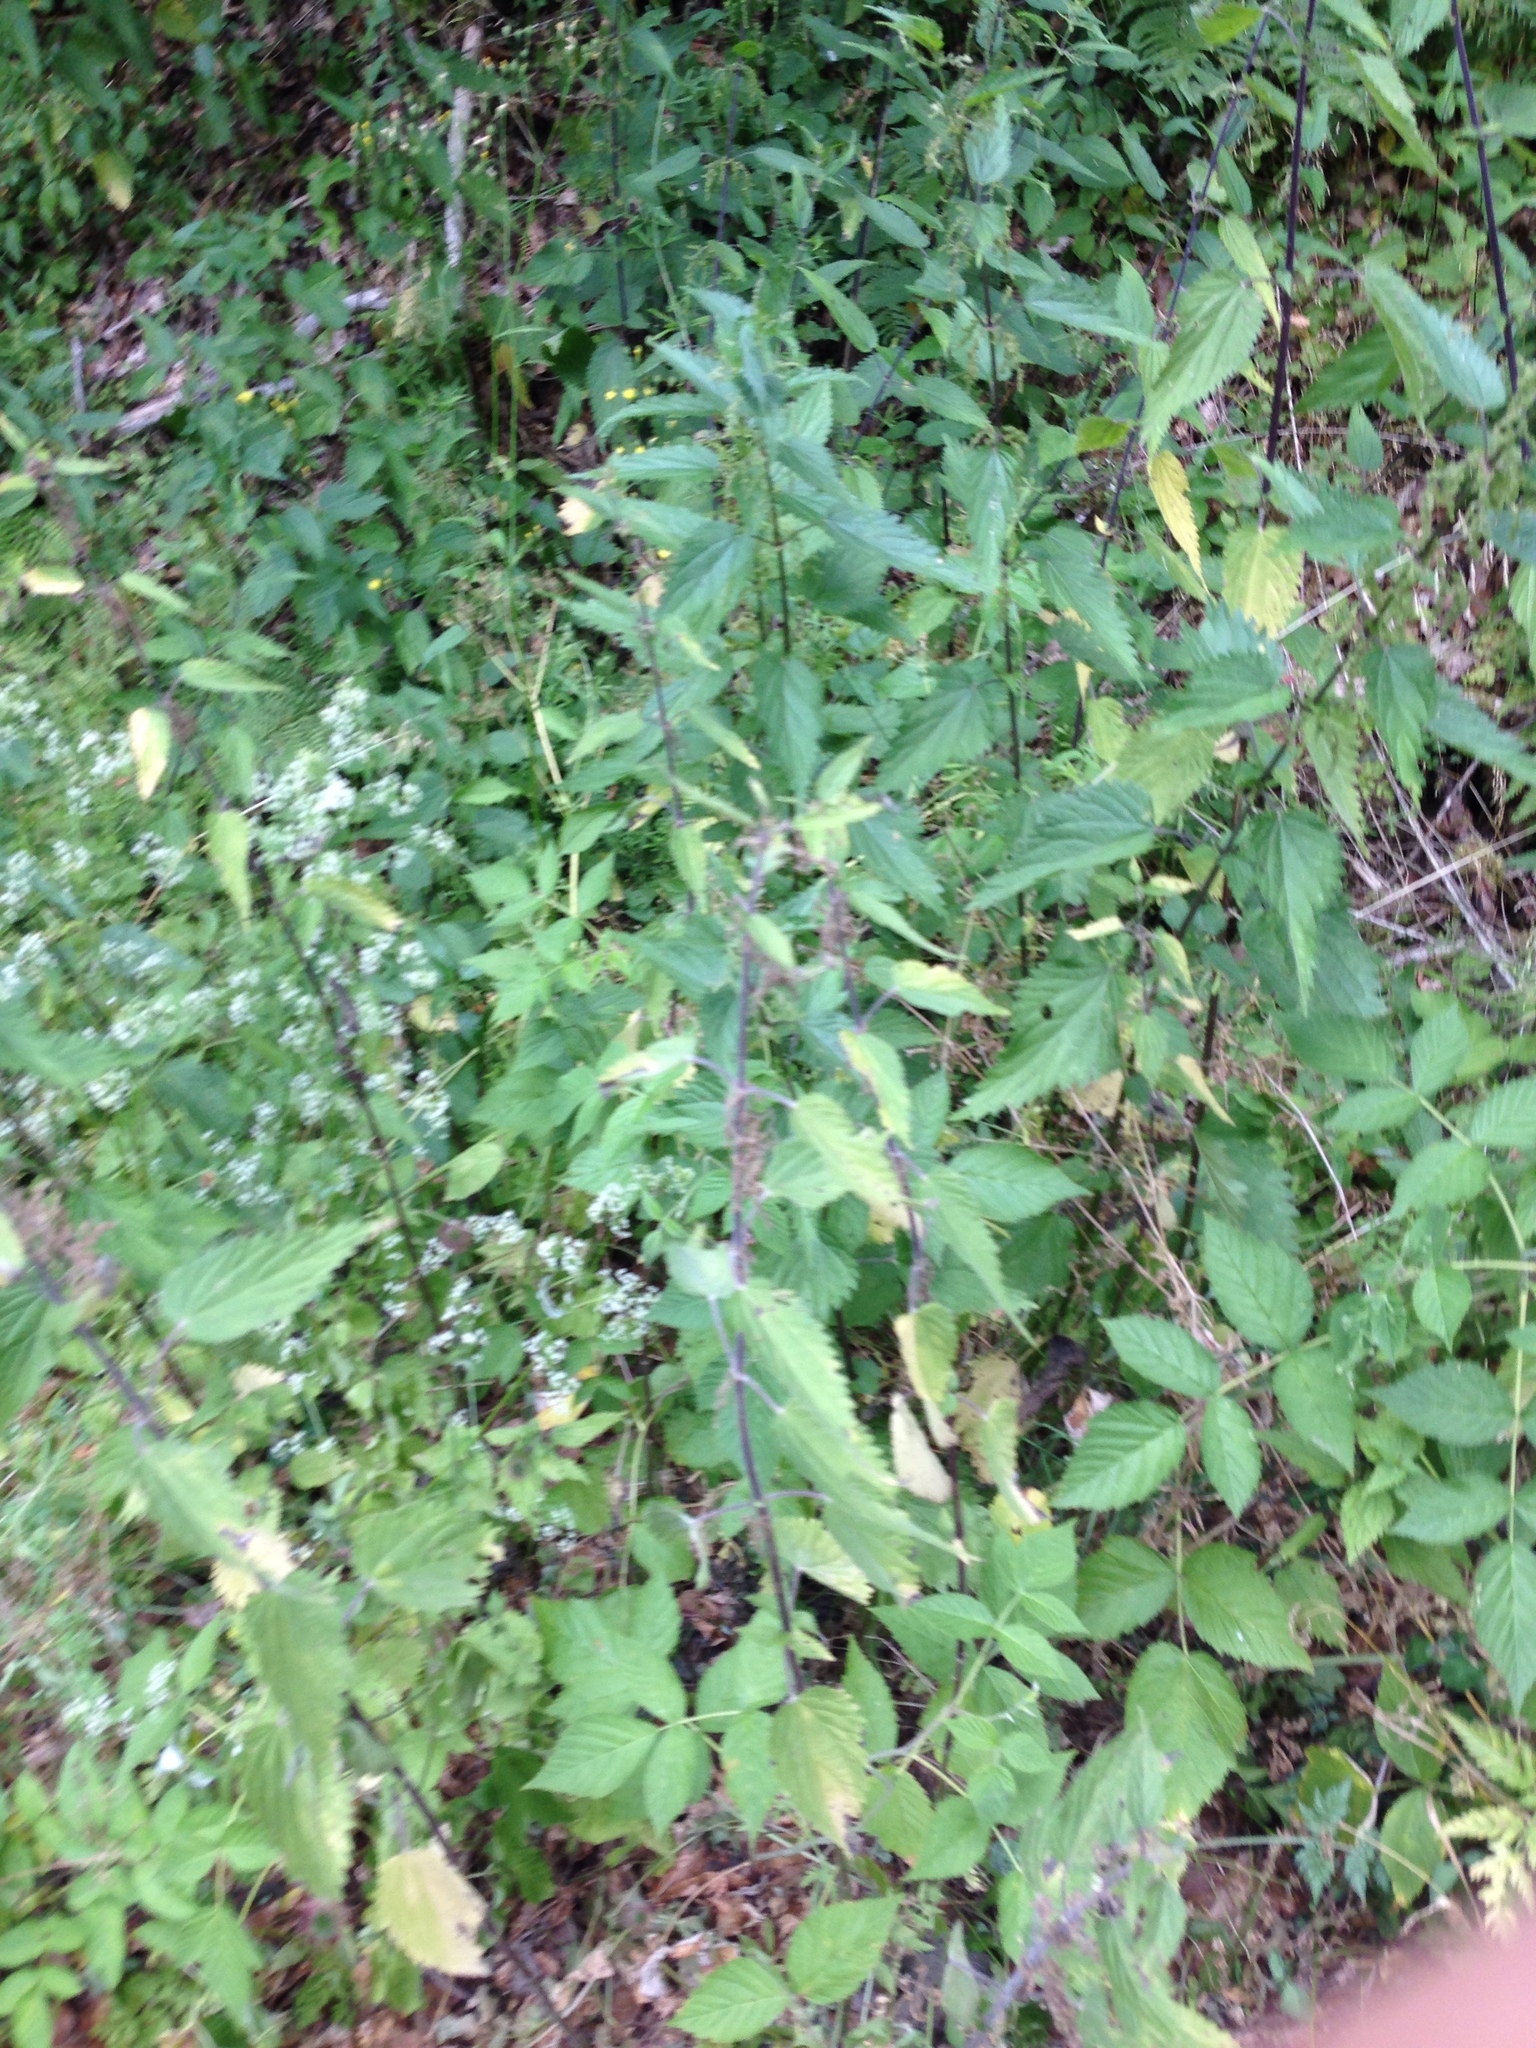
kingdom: Plantae
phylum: Tracheophyta
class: Magnoliopsida
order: Rosales
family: Urticaceae
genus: Urtica
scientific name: Urtica dioica
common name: Common nettle
